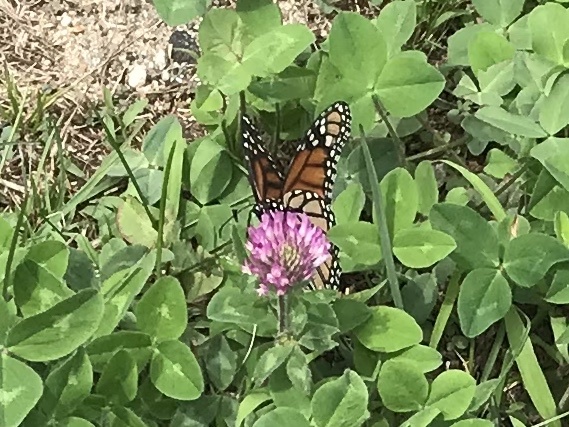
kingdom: Animalia
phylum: Arthropoda
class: Insecta
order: Lepidoptera
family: Nymphalidae
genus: Danaus
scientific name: Danaus plexippus
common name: Monarch
